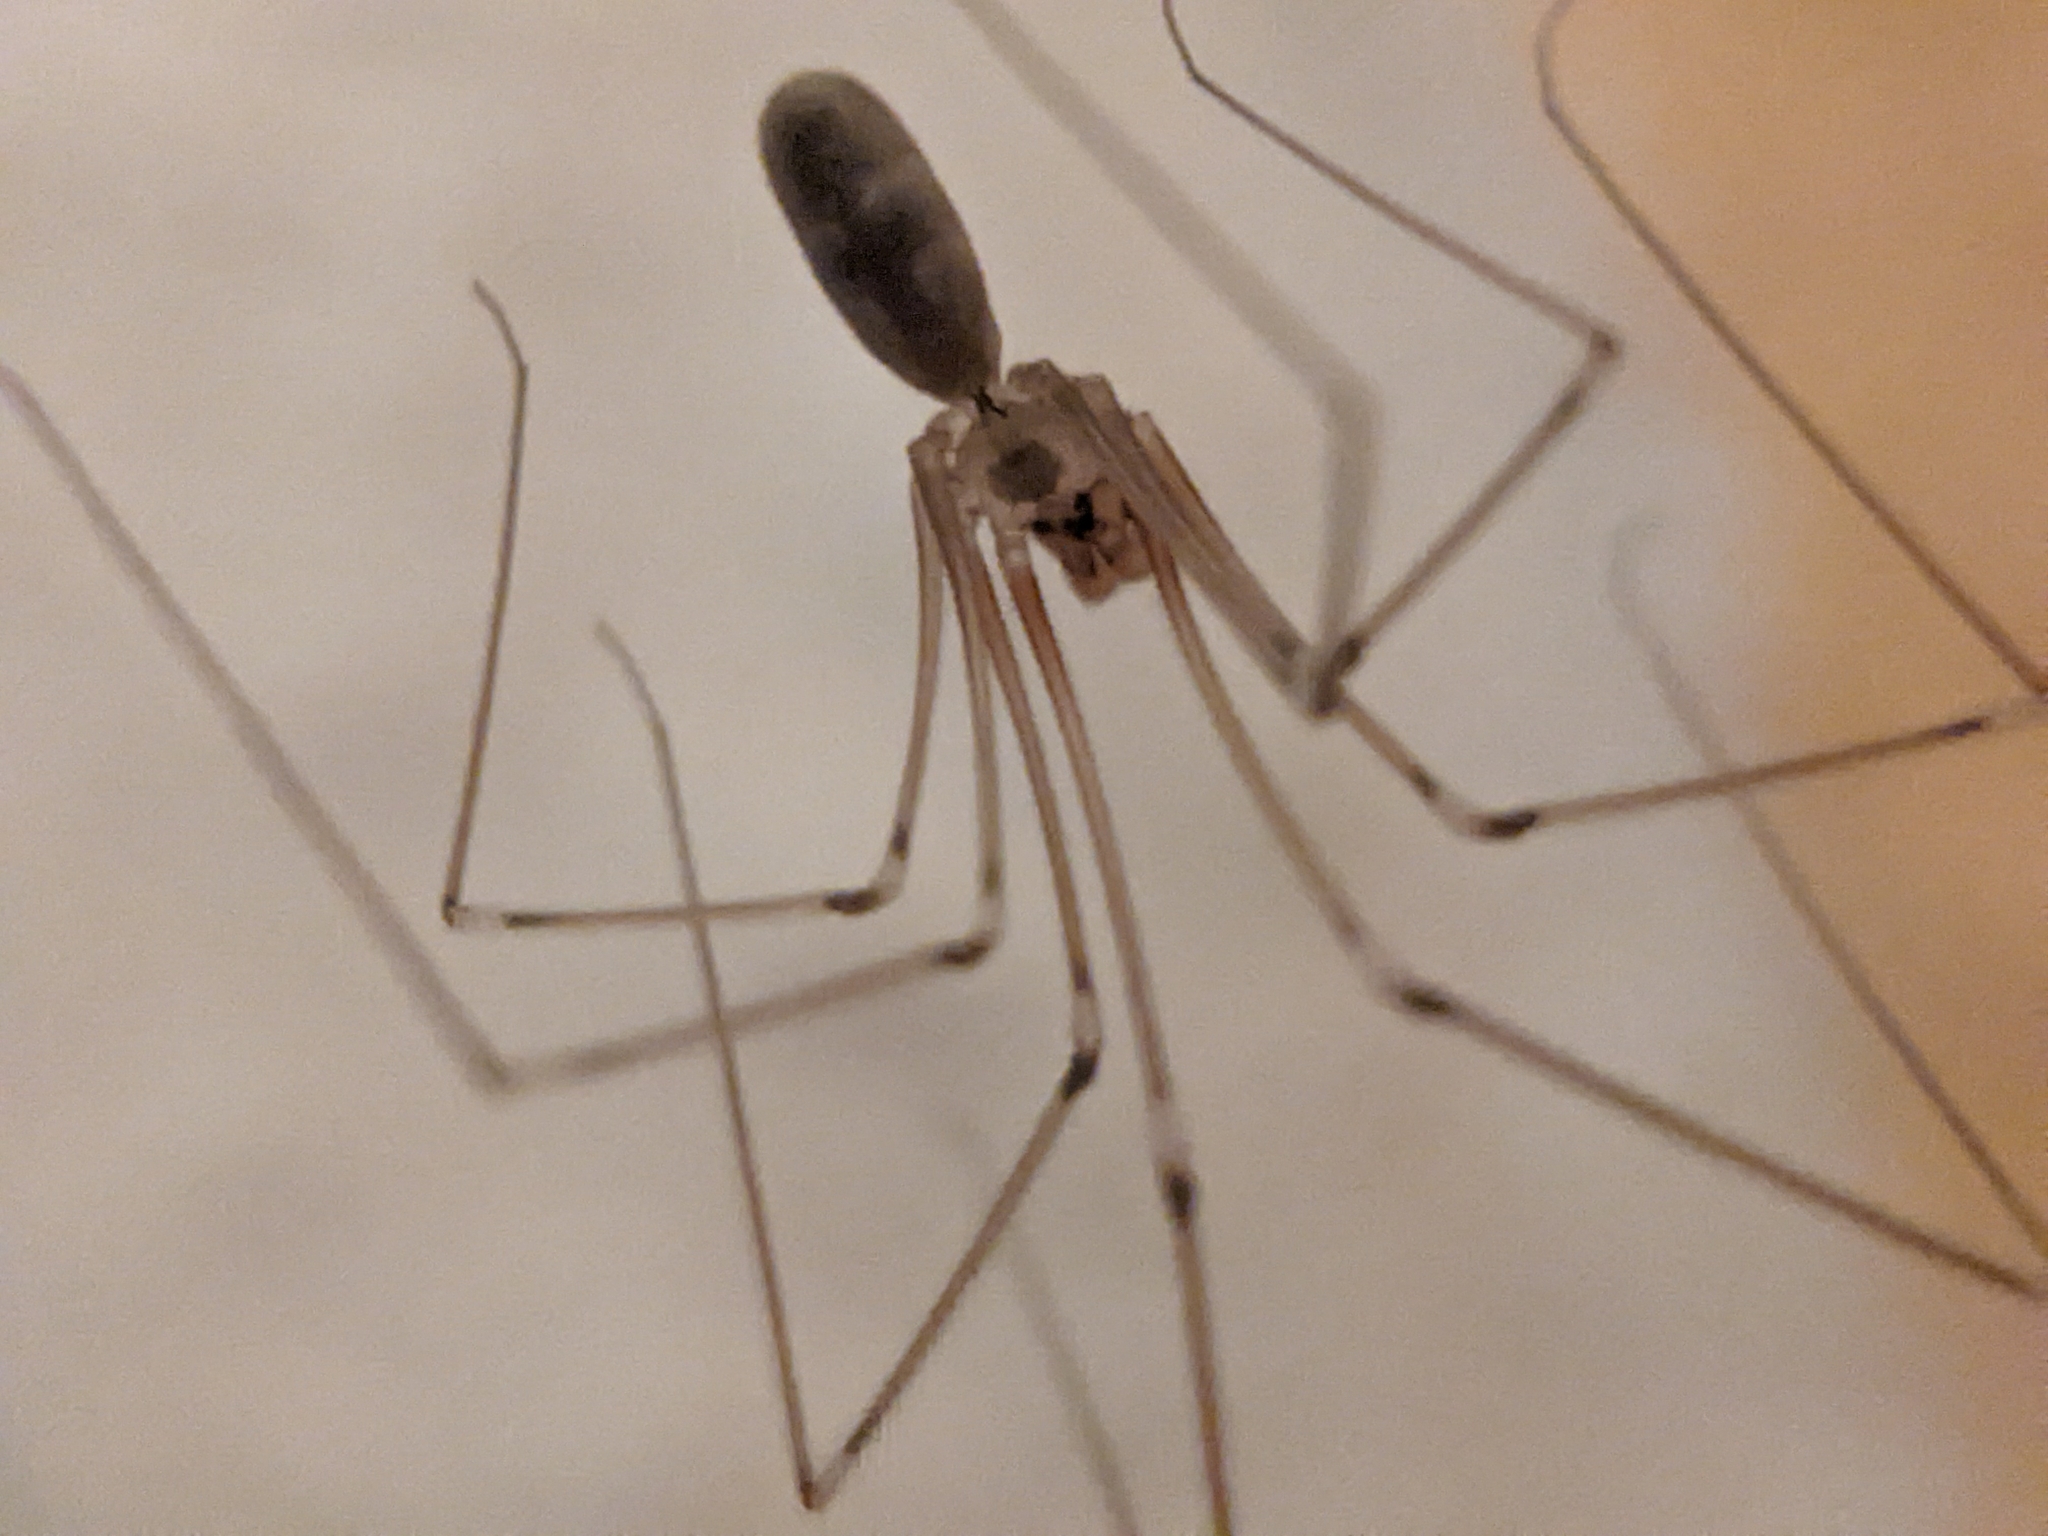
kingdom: Animalia
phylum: Arthropoda
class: Arachnida
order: Araneae
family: Pholcidae
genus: Pholcus
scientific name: Pholcus phalangioides
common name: Longbodied cellar spider
